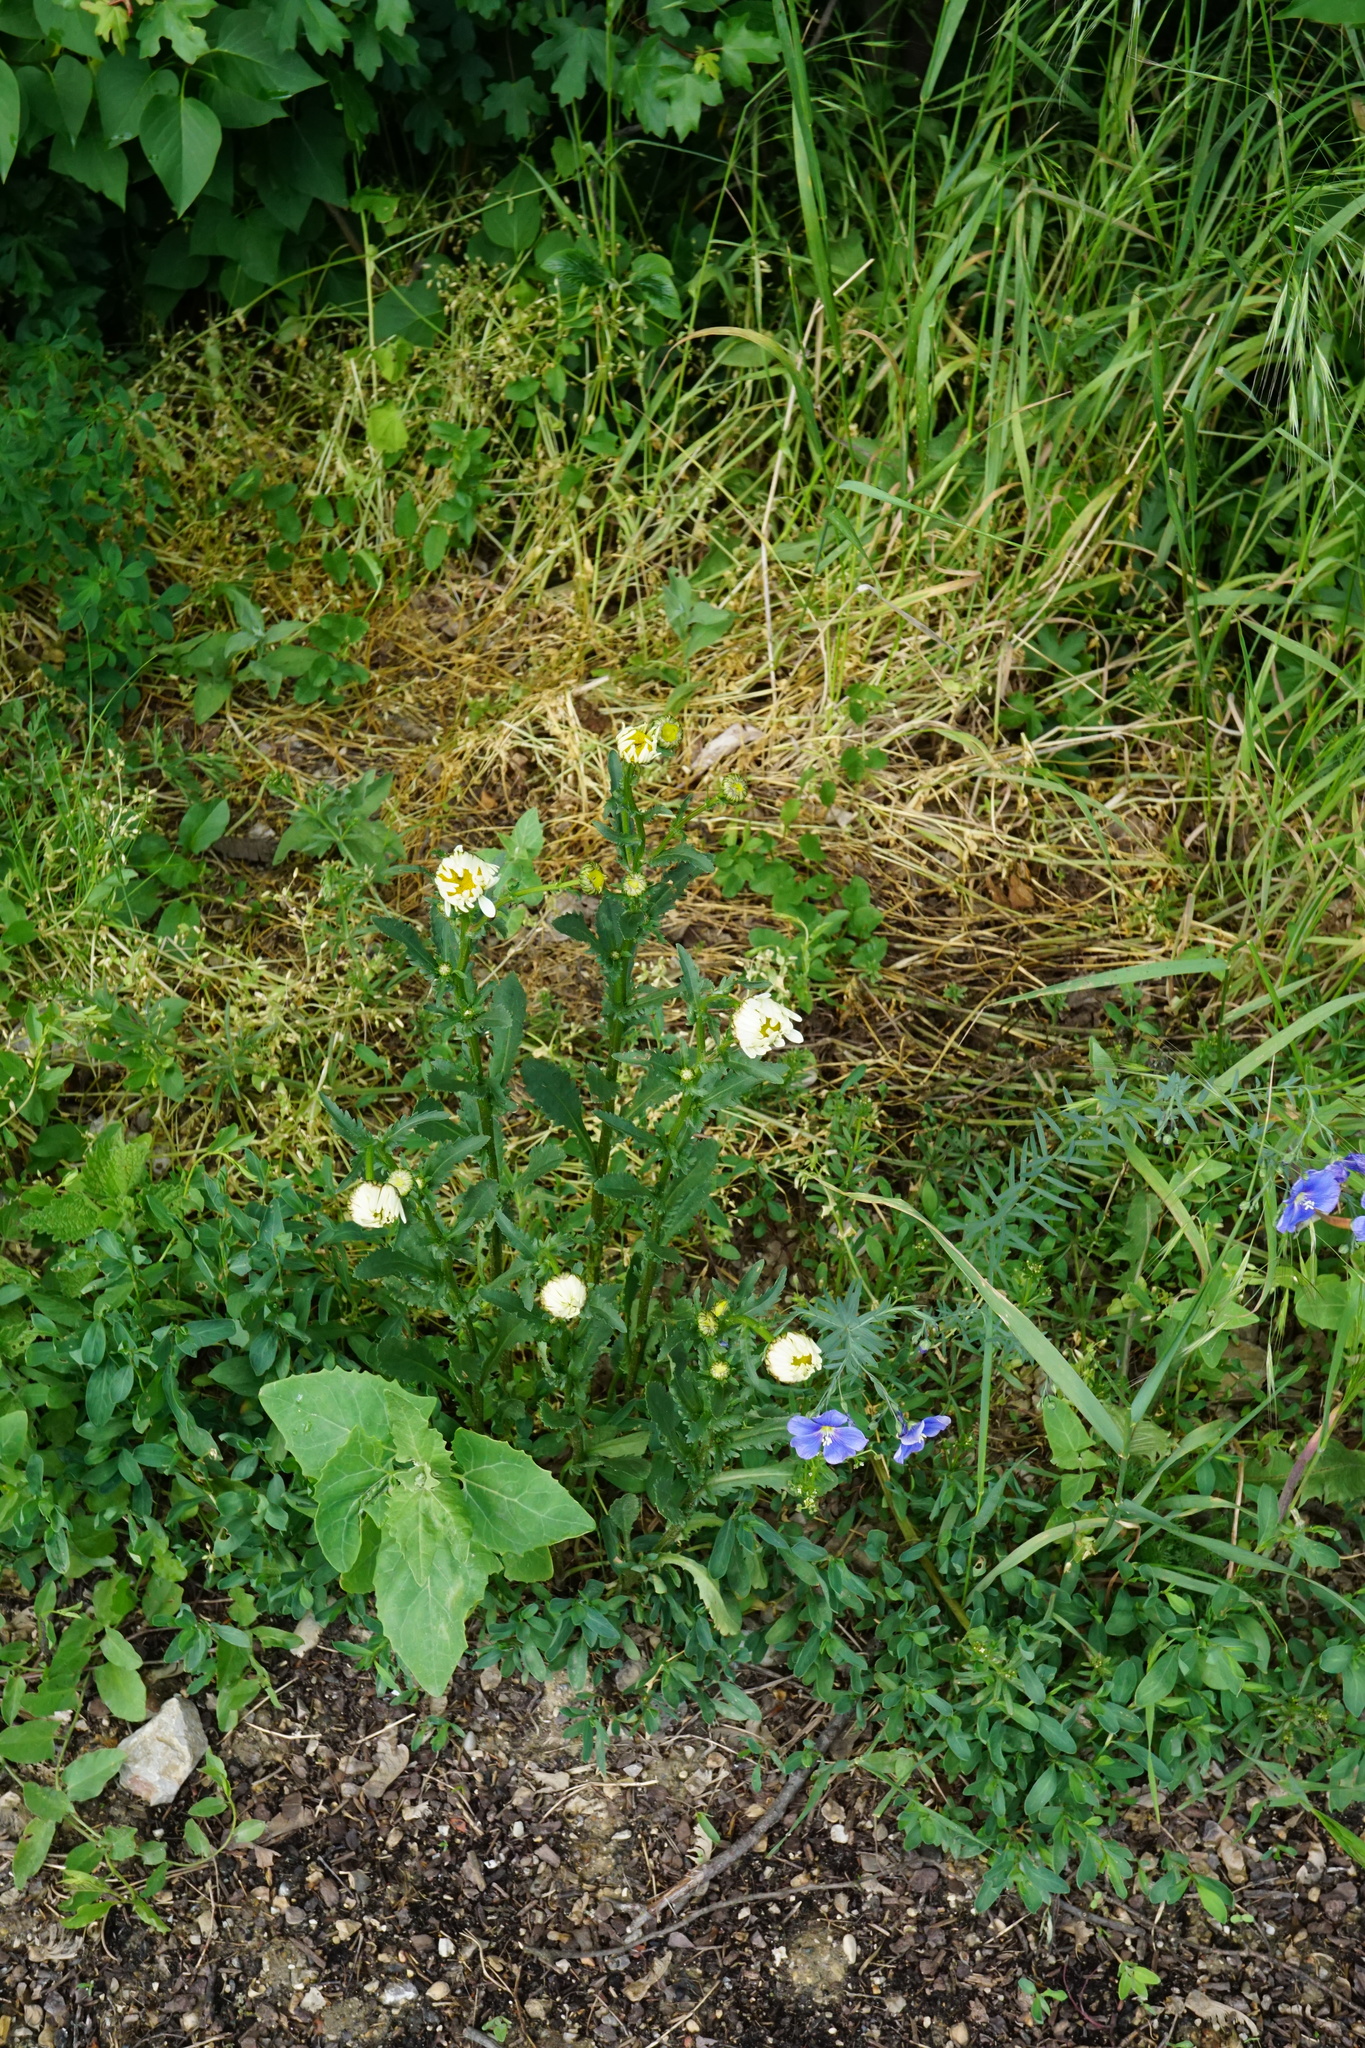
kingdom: Plantae
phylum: Tracheophyta
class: Magnoliopsida
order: Asterales
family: Asteraceae
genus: Leucanthemum
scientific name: Leucanthemum vulgare
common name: Oxeye daisy
